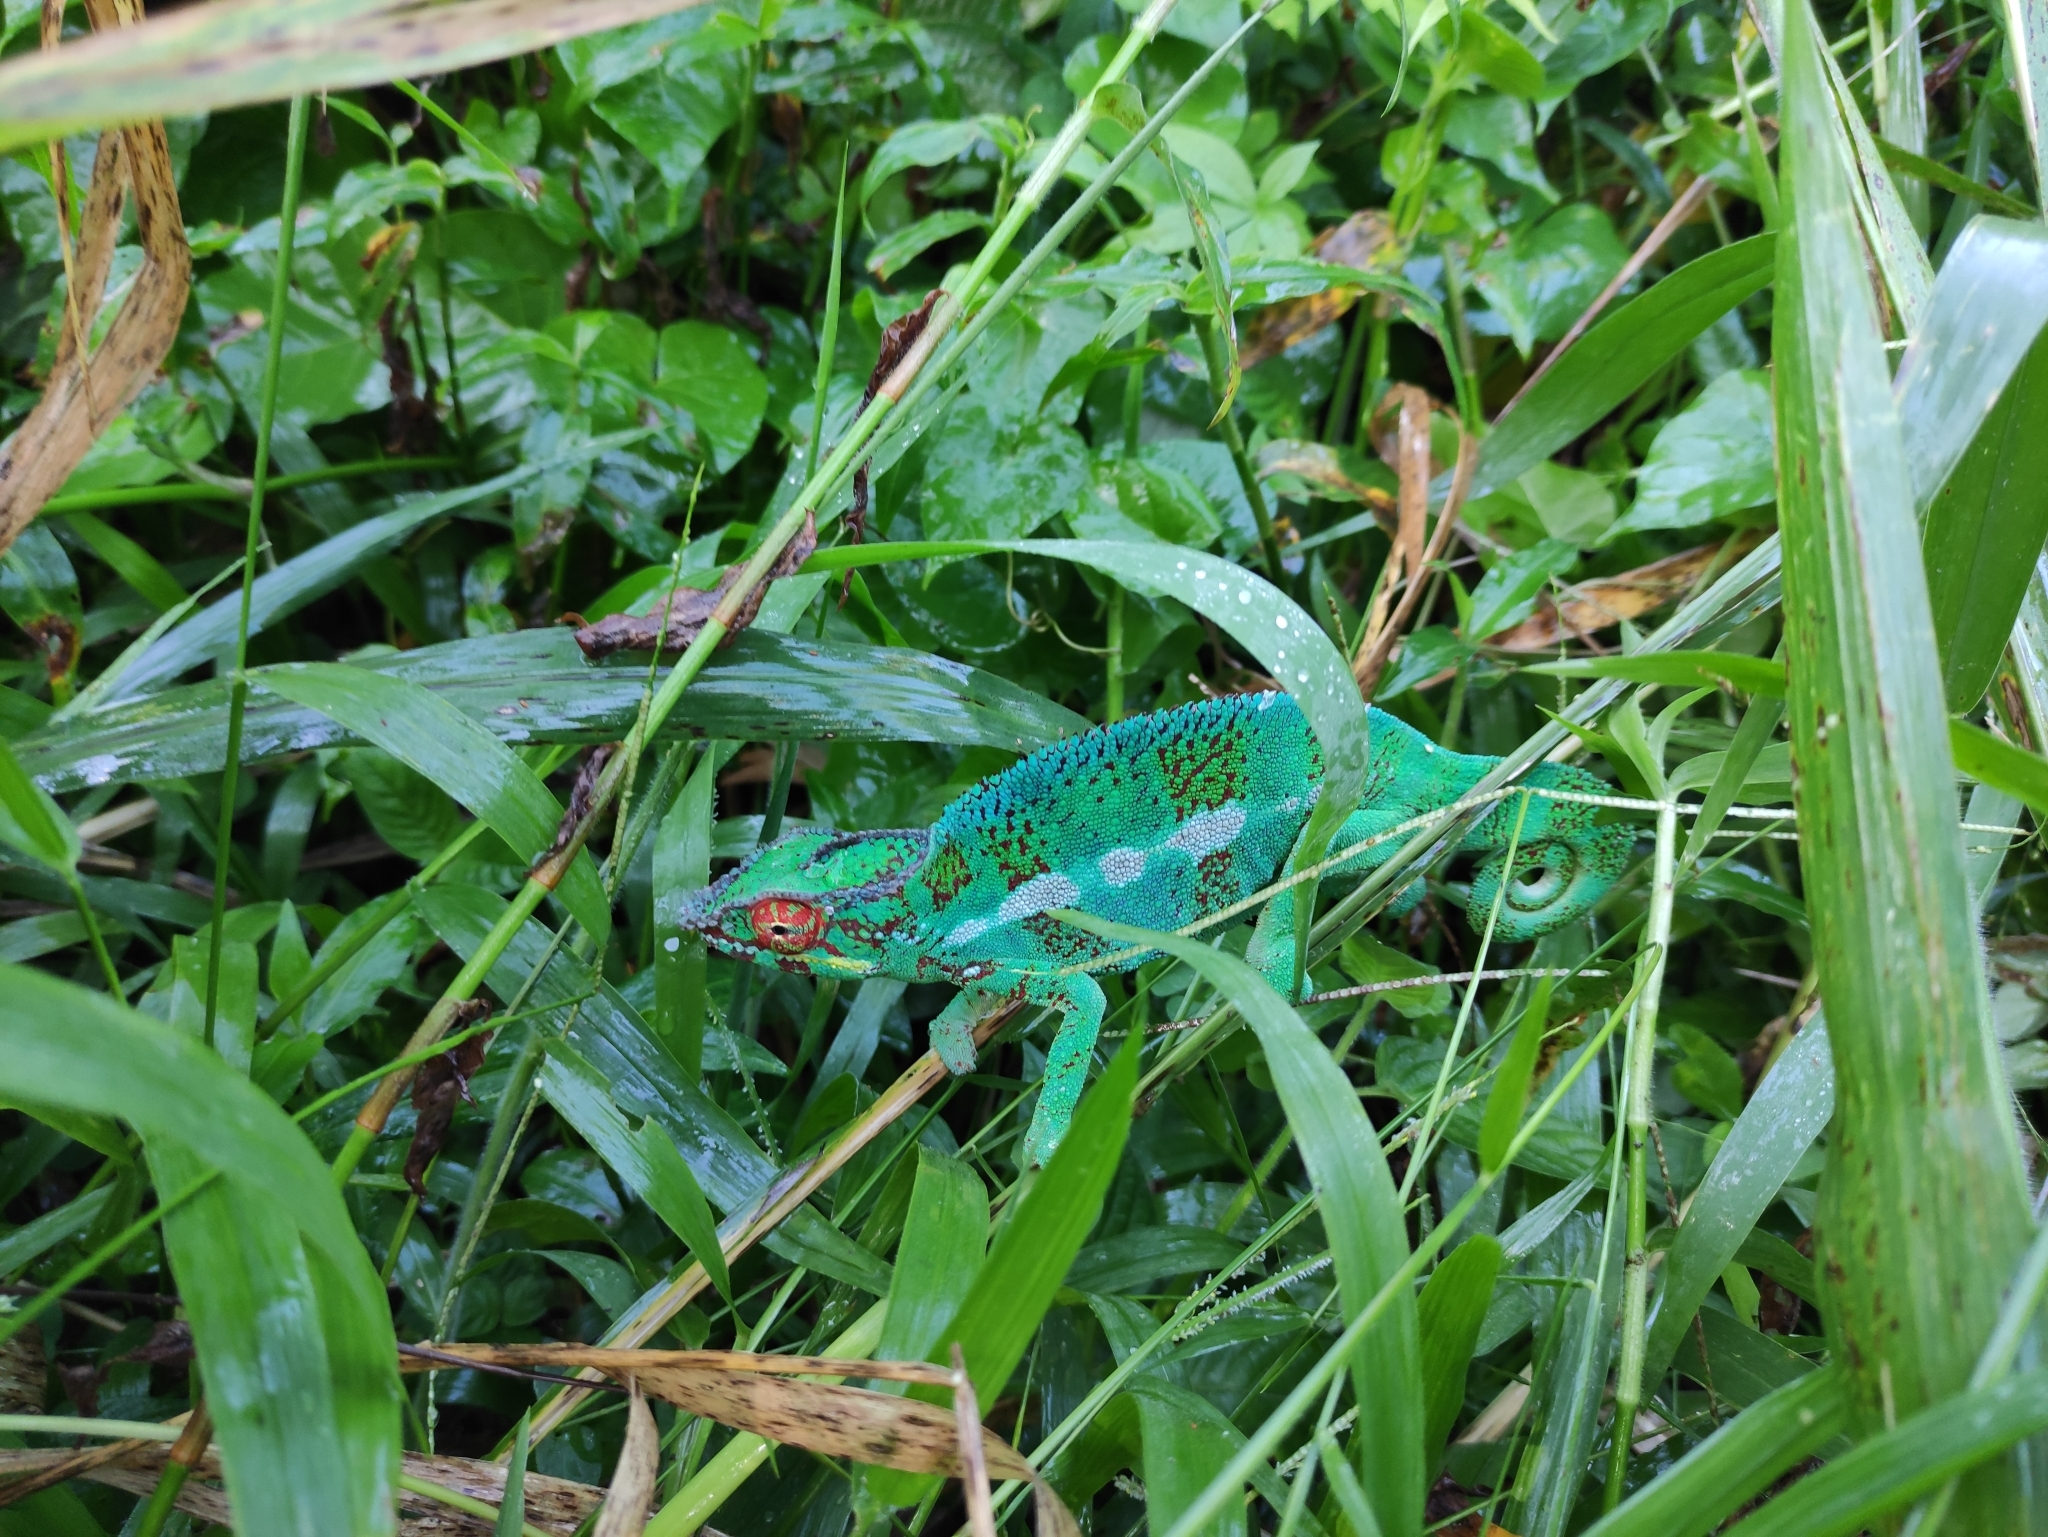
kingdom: Animalia
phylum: Chordata
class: Squamata
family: Chamaeleonidae
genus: Furcifer
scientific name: Furcifer pardalis
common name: Panther chameleon
